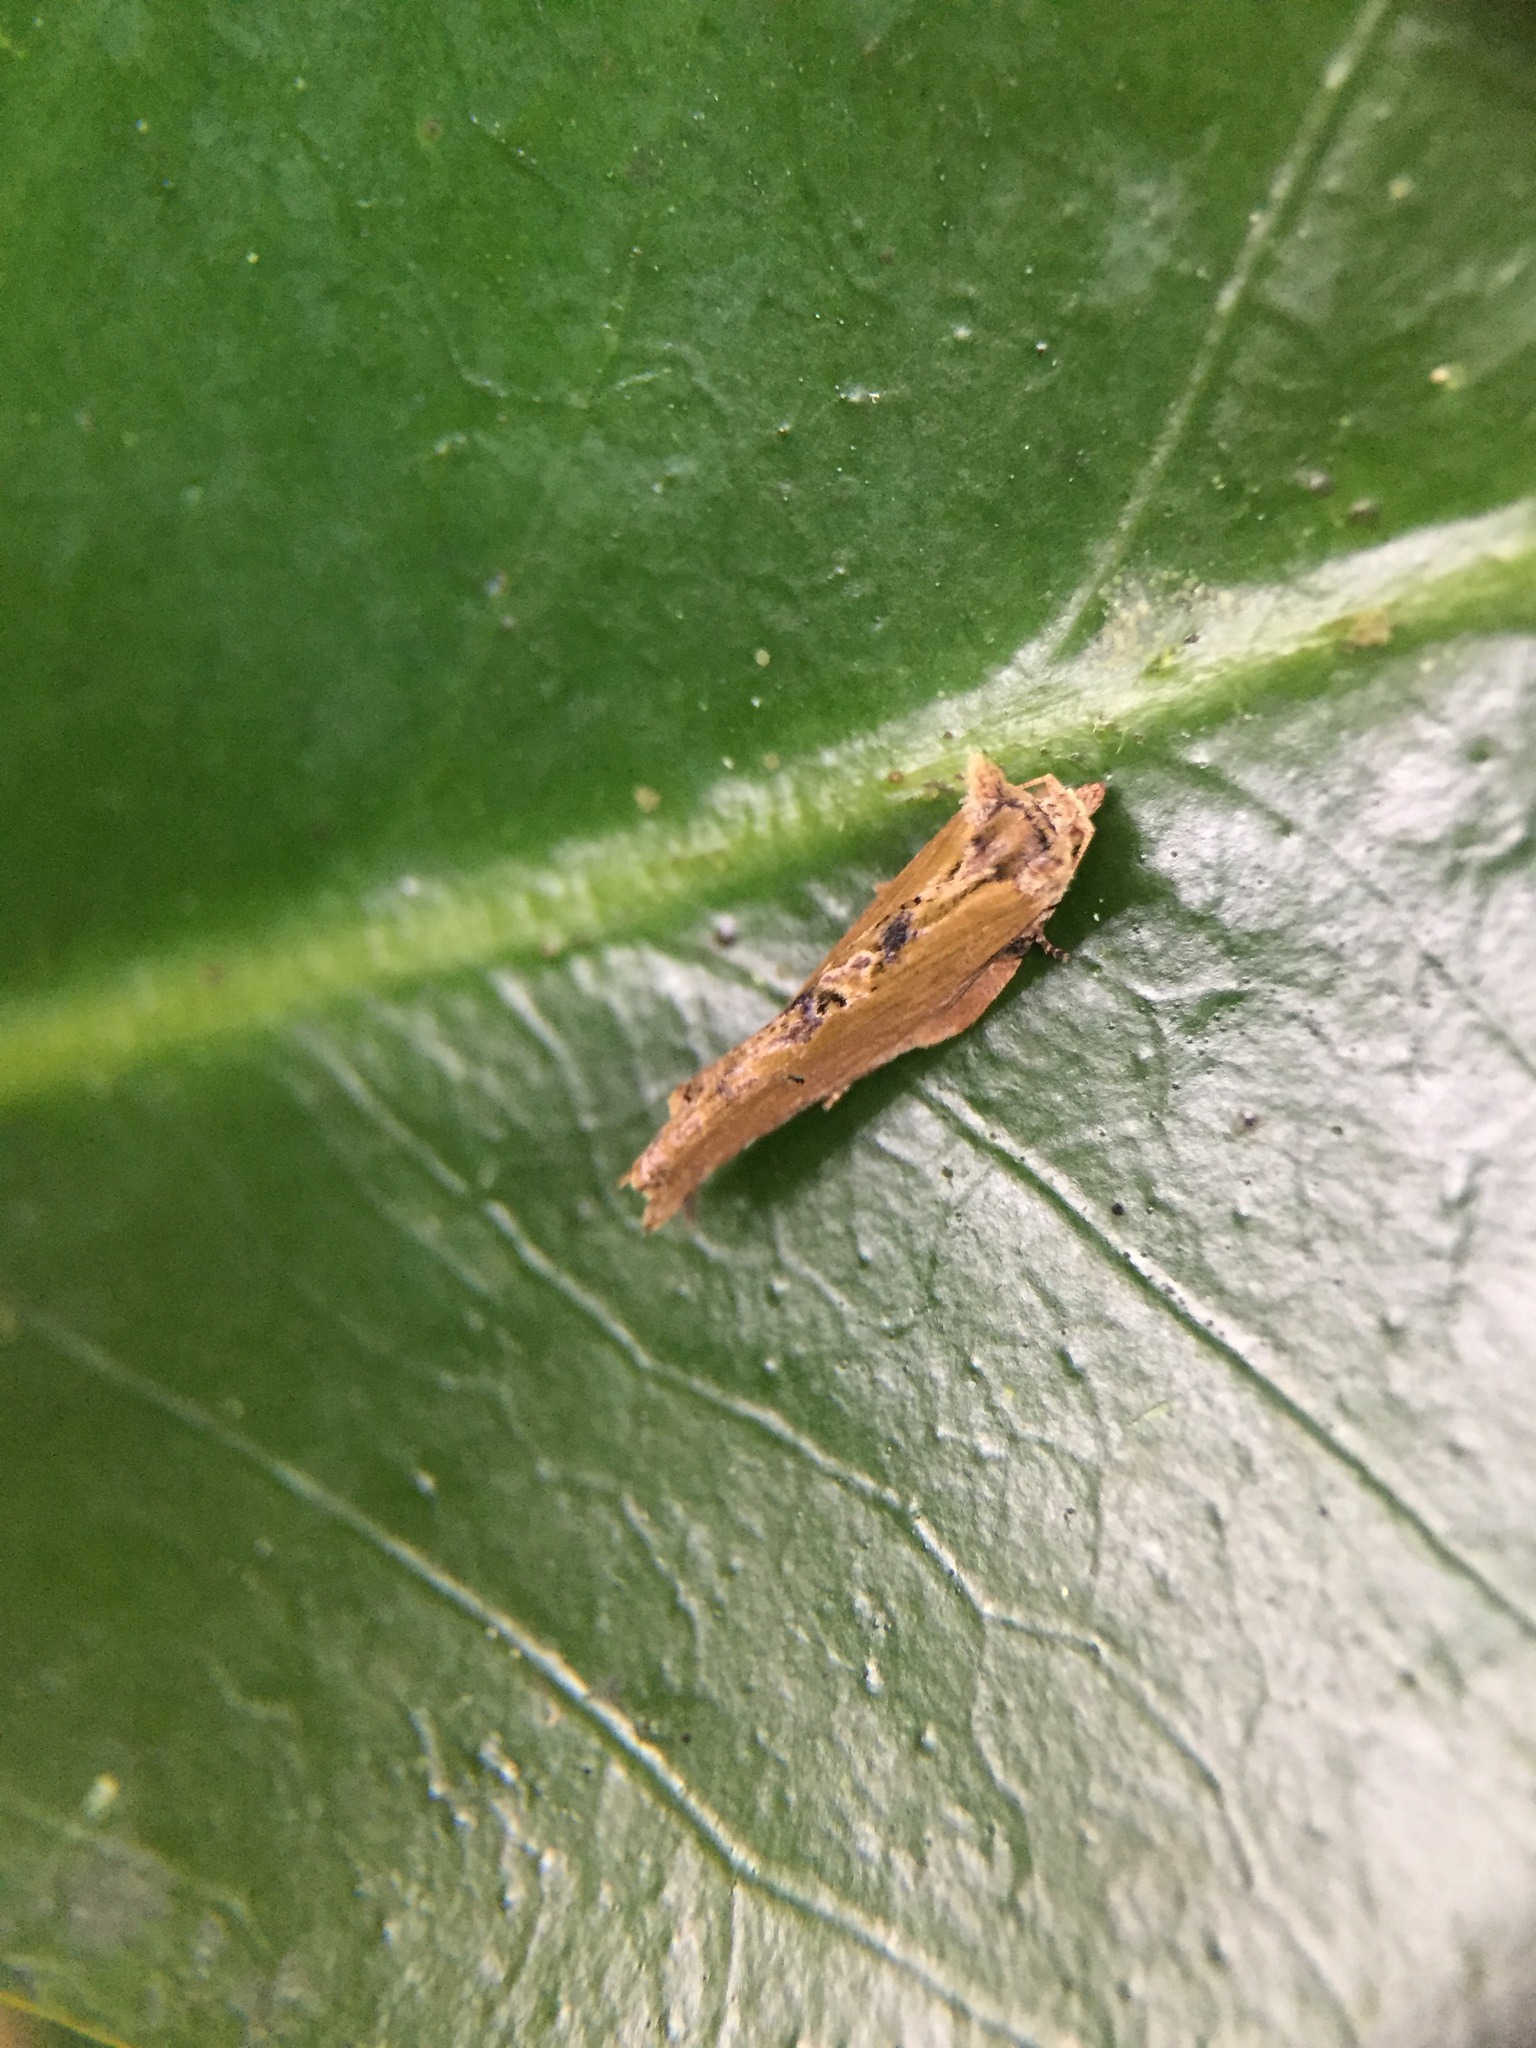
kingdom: Animalia
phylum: Arthropoda
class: Insecta
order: Lepidoptera
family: Tortricidae
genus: Epalxiphora
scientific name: Epalxiphora axenana
